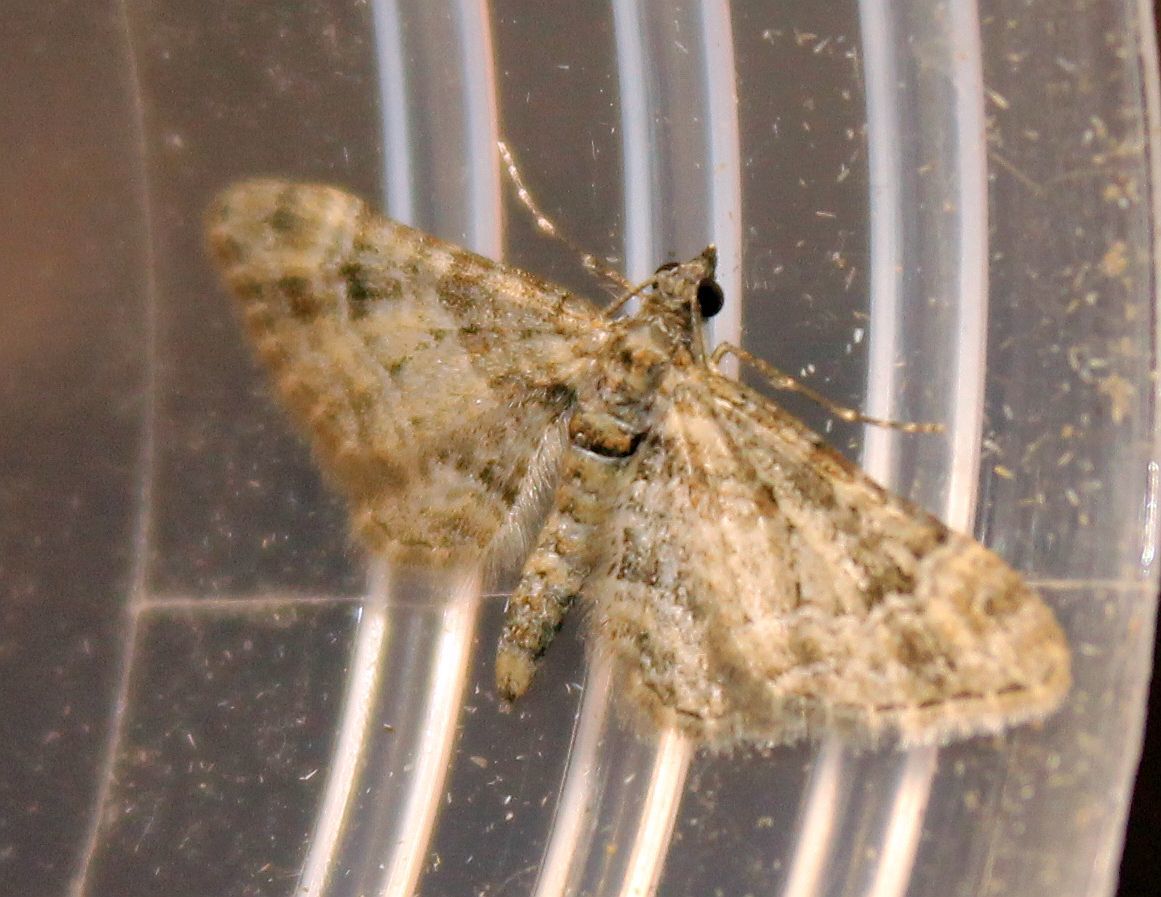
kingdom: Animalia
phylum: Arthropoda
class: Insecta
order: Lepidoptera
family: Geometridae
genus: Gymnoscelis
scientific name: Gymnoscelis rufifasciata
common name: Double-striped pug
